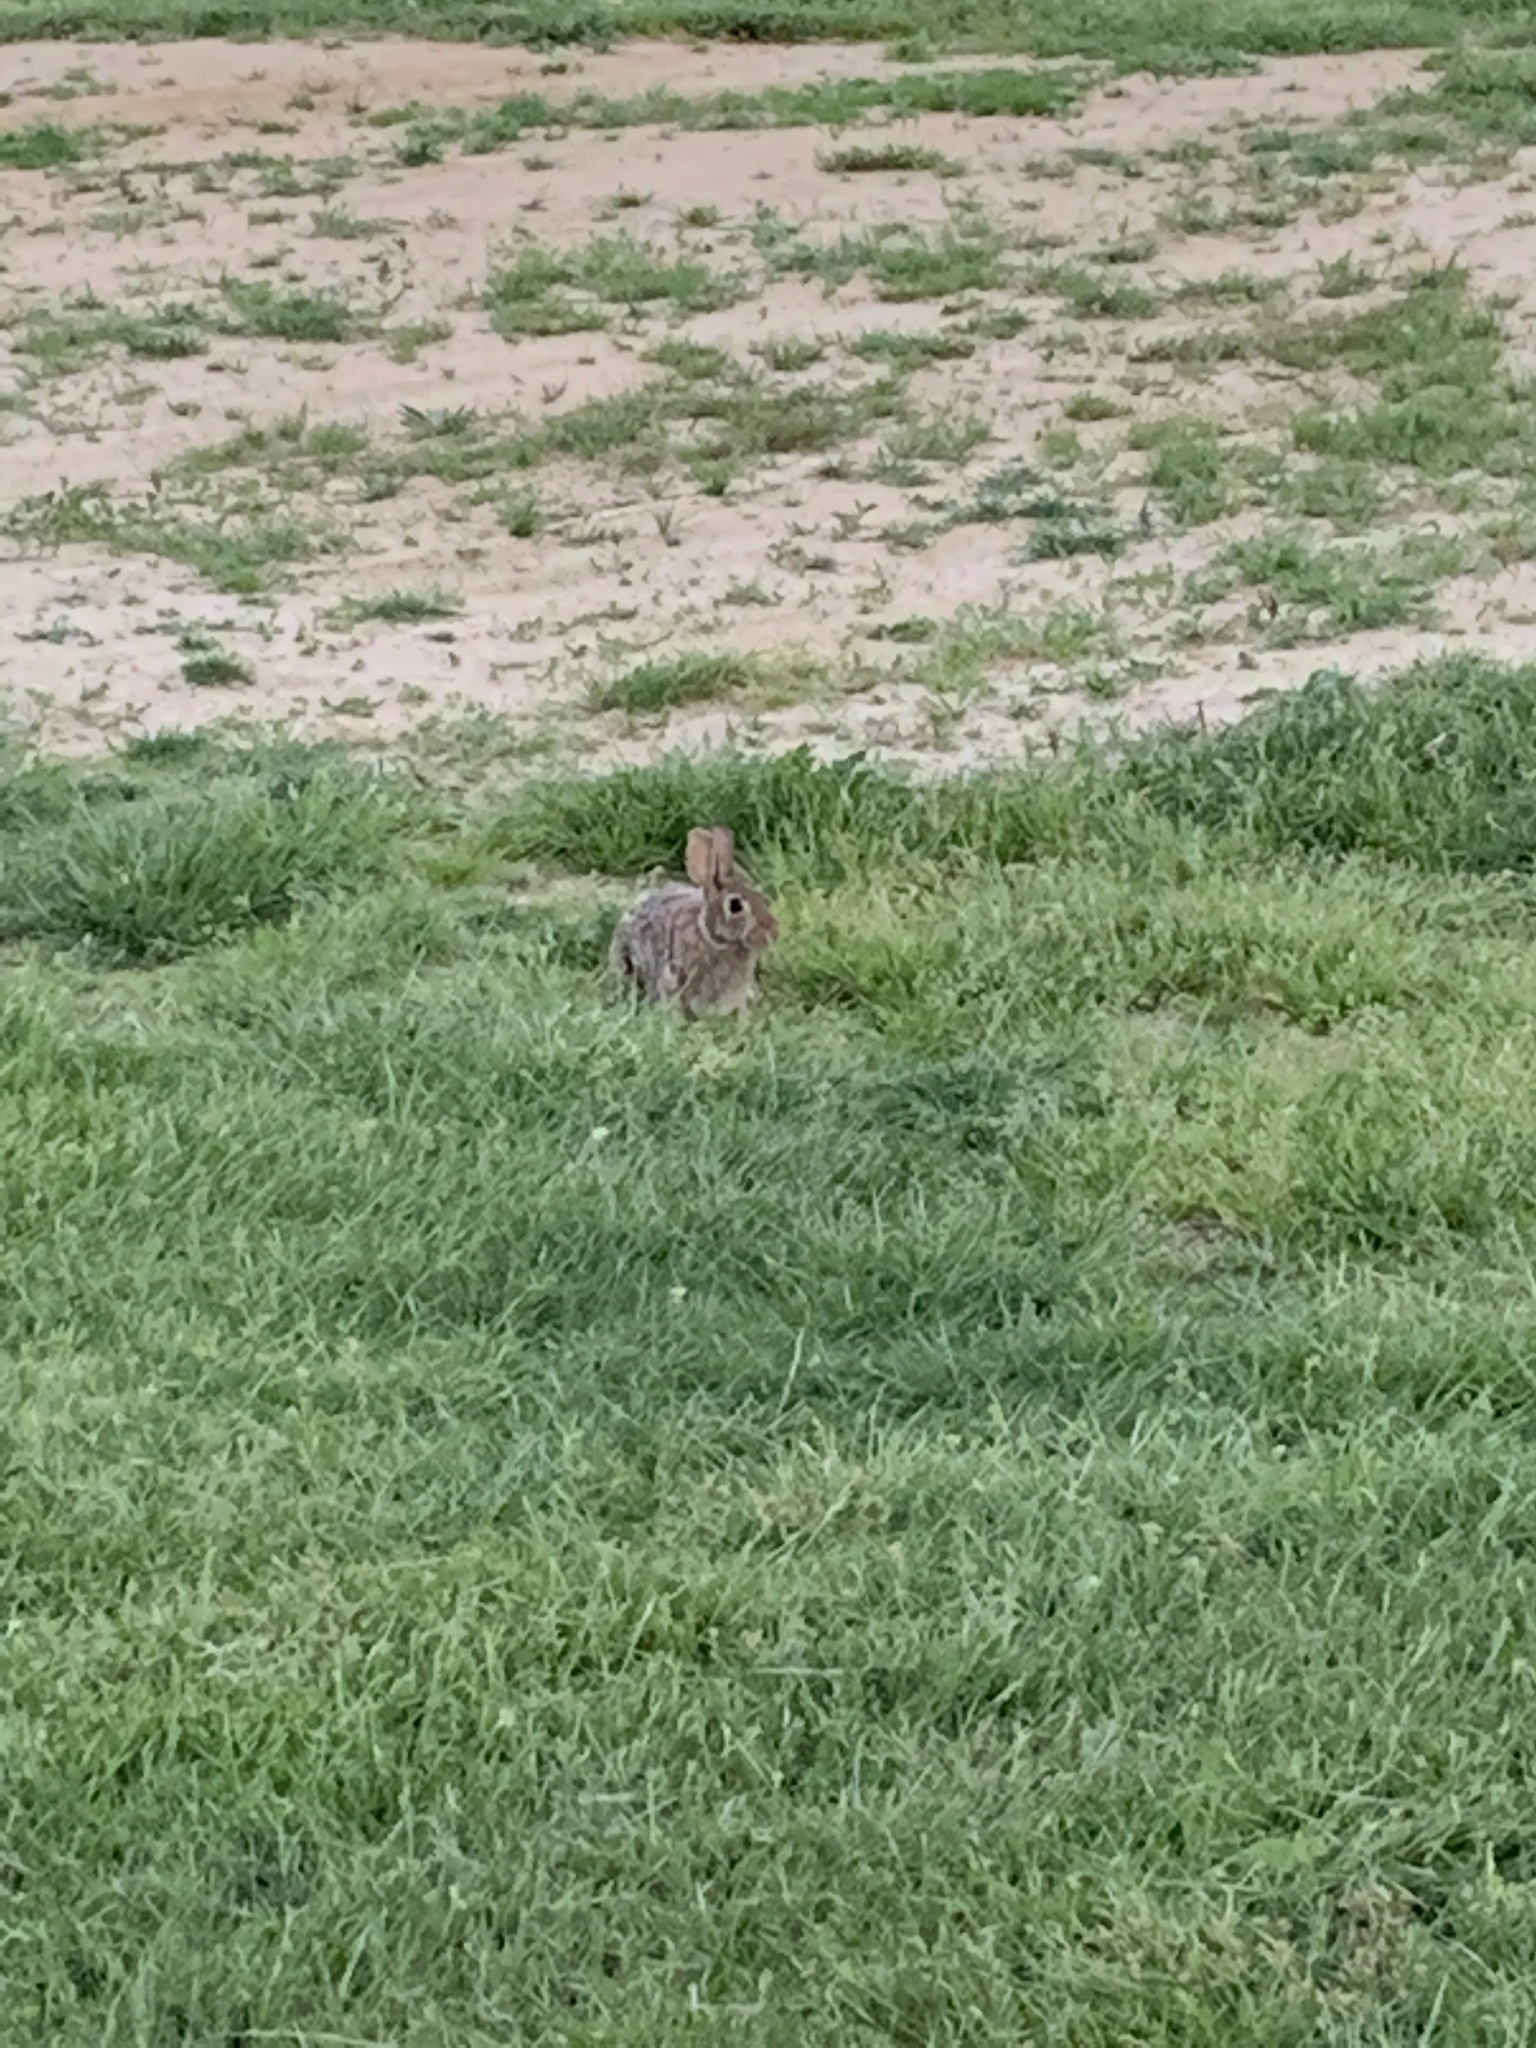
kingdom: Animalia
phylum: Chordata
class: Mammalia
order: Lagomorpha
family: Leporidae
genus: Sylvilagus
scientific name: Sylvilagus floridanus
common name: Eastern cottontail
